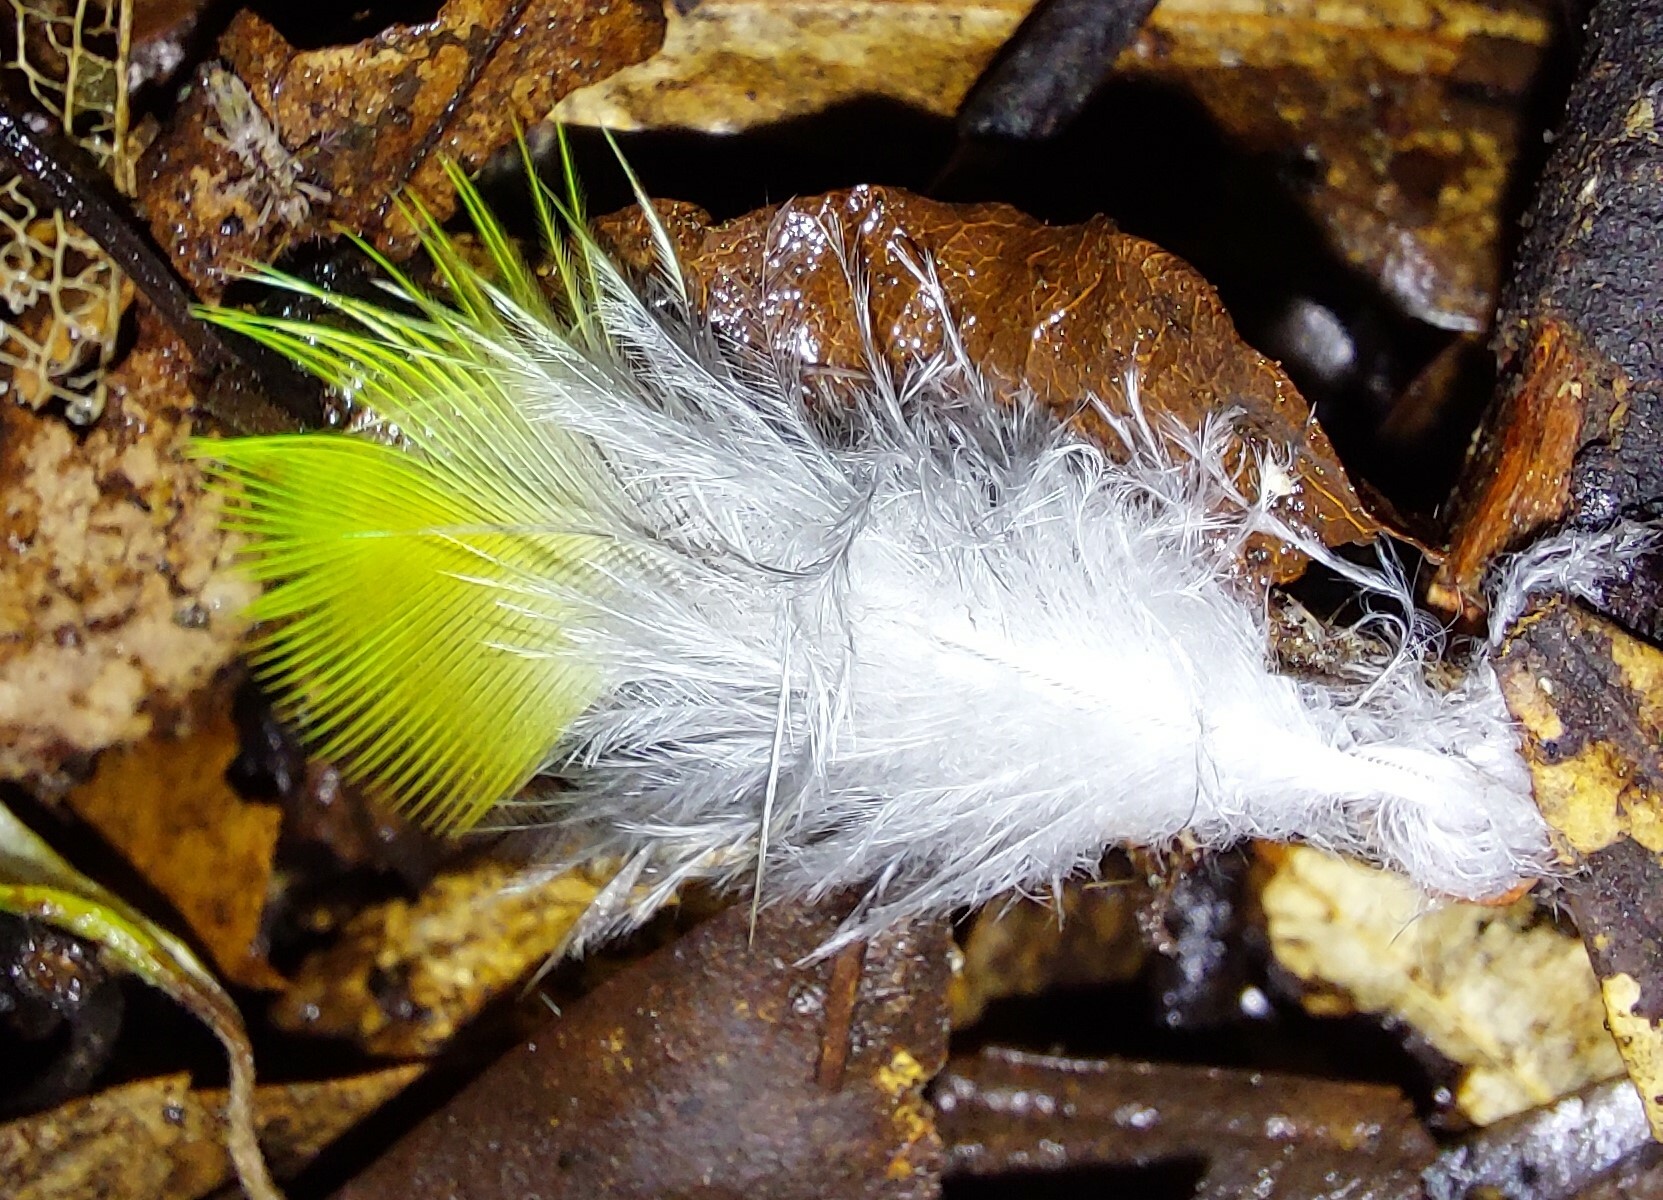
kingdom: Animalia
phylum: Chordata
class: Aves
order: Psittaciformes
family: Psittacidae
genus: Platycercus
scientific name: Platycercus eximius
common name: Eastern rosella
